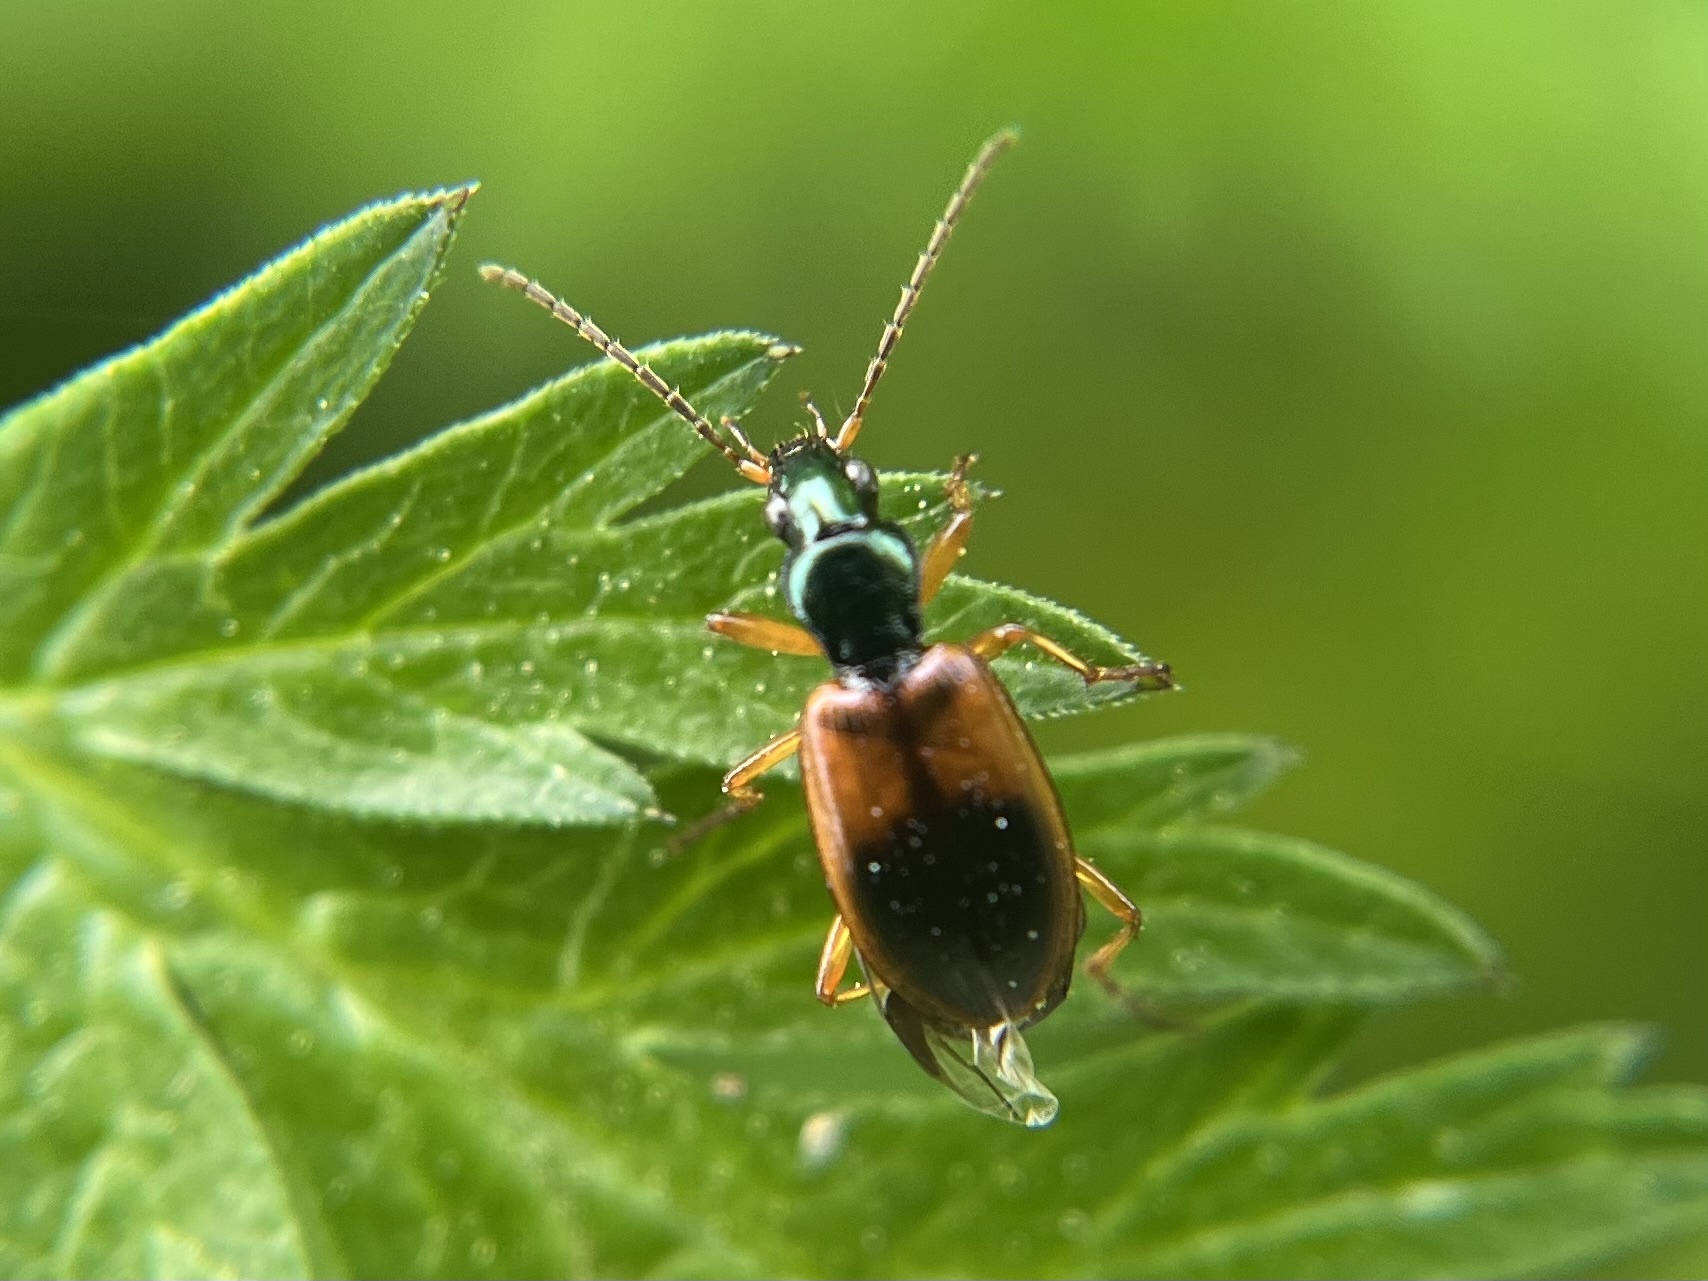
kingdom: Animalia
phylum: Arthropoda
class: Insecta
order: Coleoptera
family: Carabidae
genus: Anchomenus
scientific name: Anchomenus dorsalis
